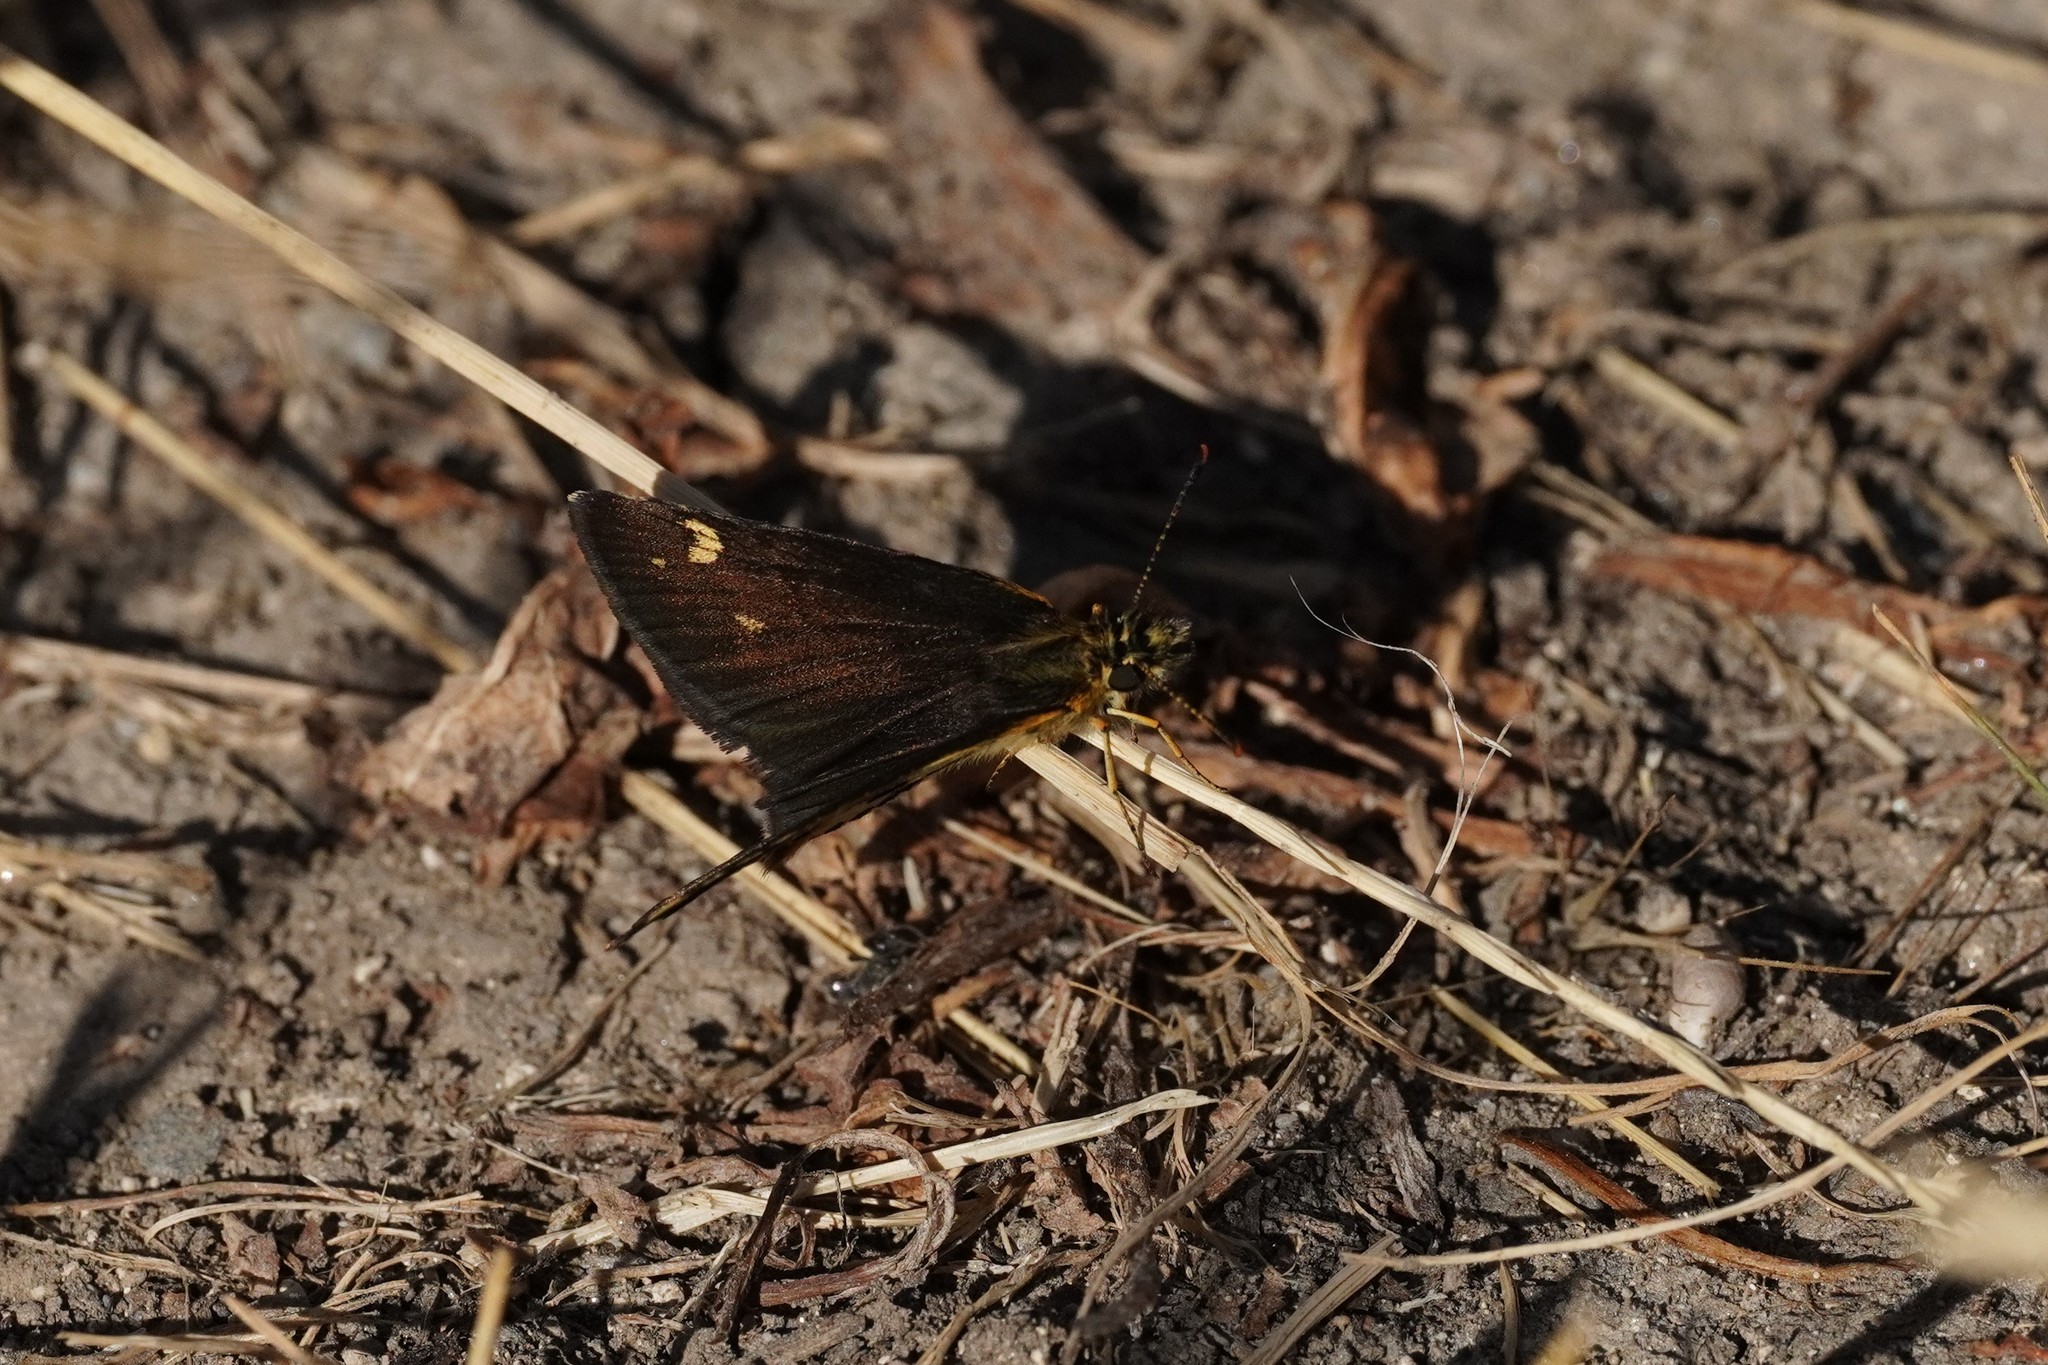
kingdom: Animalia
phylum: Arthropoda
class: Insecta
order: Lepidoptera
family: Hesperiidae
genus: Heteropterus
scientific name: Heteropterus morpheus
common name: Large chequered skipper
